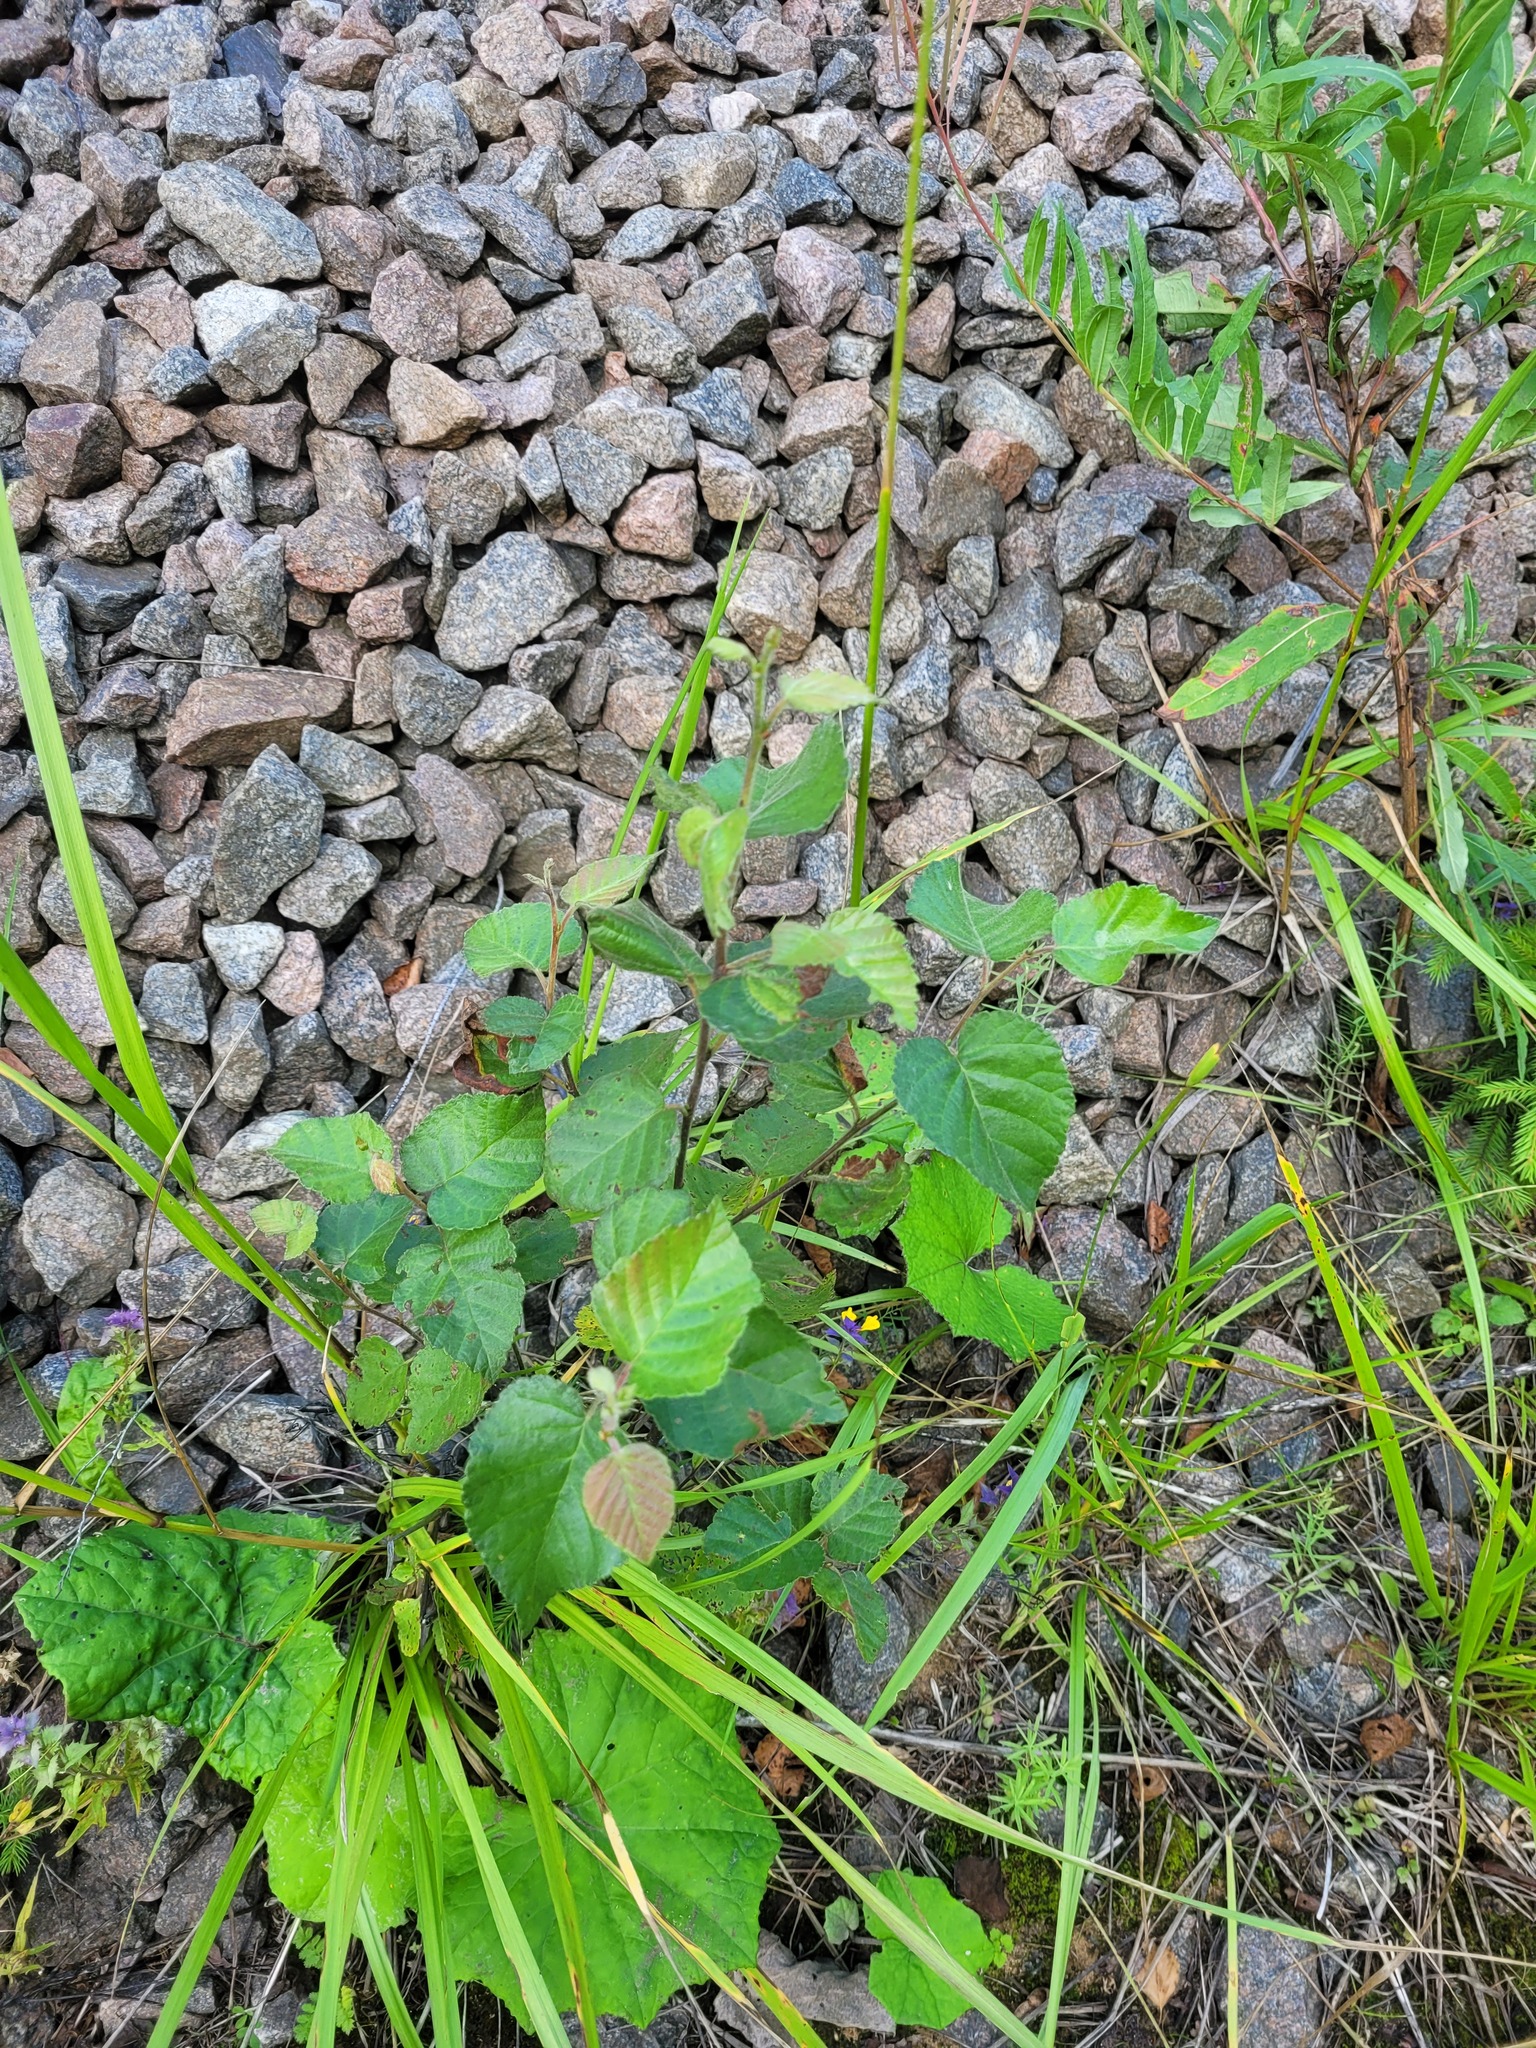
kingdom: Plantae
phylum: Tracheophyta
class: Magnoliopsida
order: Fagales
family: Betulaceae
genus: Betula
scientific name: Betula pubescens
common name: Downy birch
